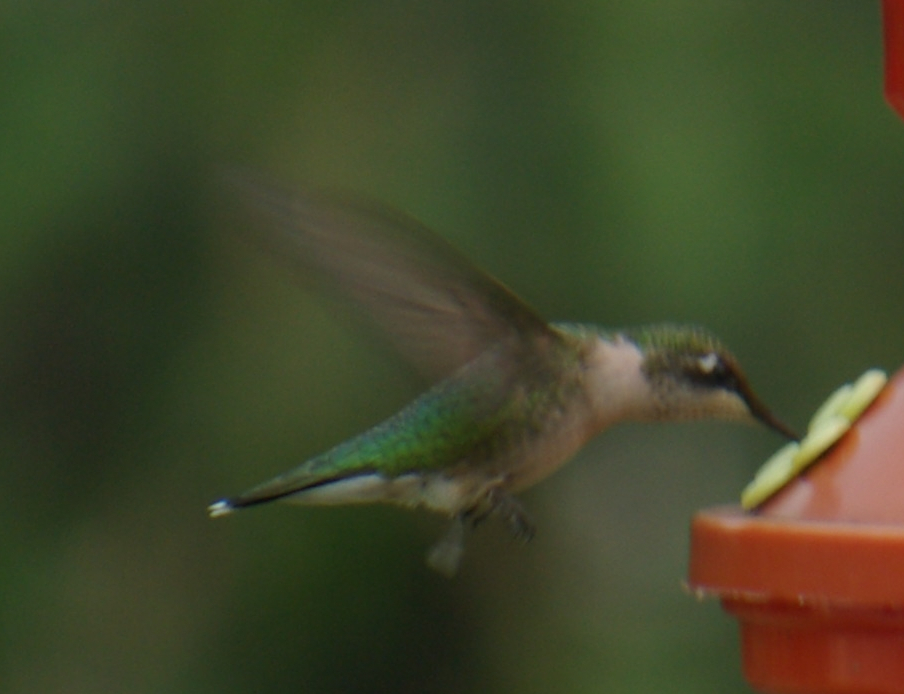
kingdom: Animalia
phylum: Chordata
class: Aves
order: Apodiformes
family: Trochilidae
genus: Archilochus
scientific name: Archilochus colubris
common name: Ruby-throated hummingbird
